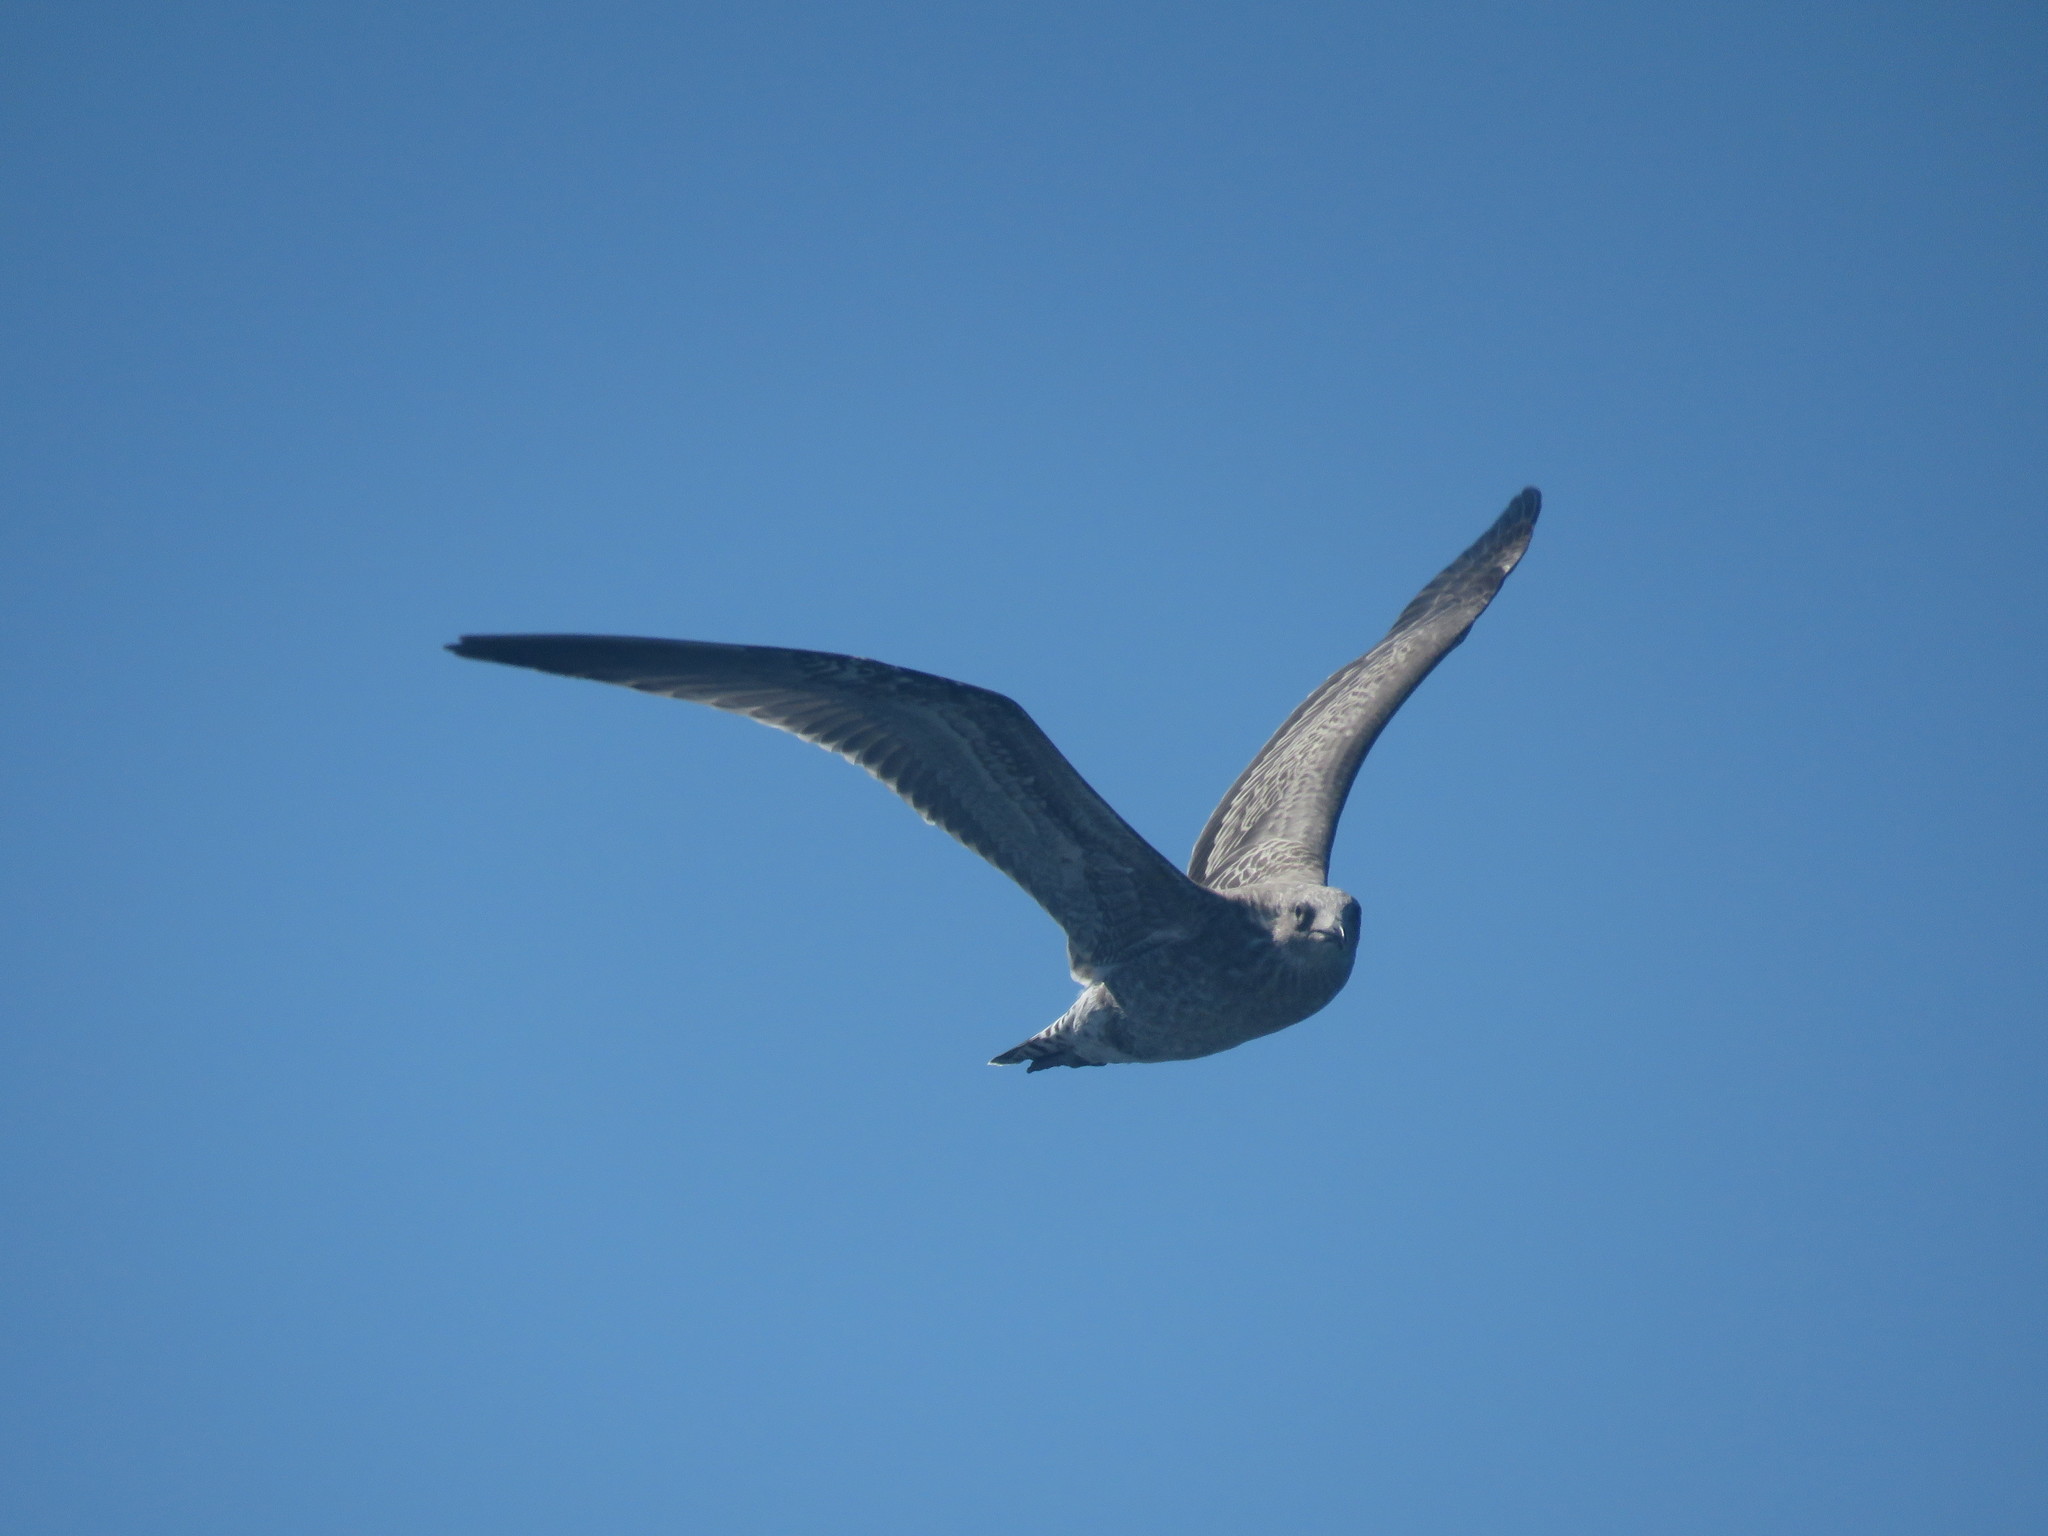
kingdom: Animalia
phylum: Chordata
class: Aves
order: Charadriiformes
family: Laridae
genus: Larus
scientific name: Larus dominicanus
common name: Kelp gull
